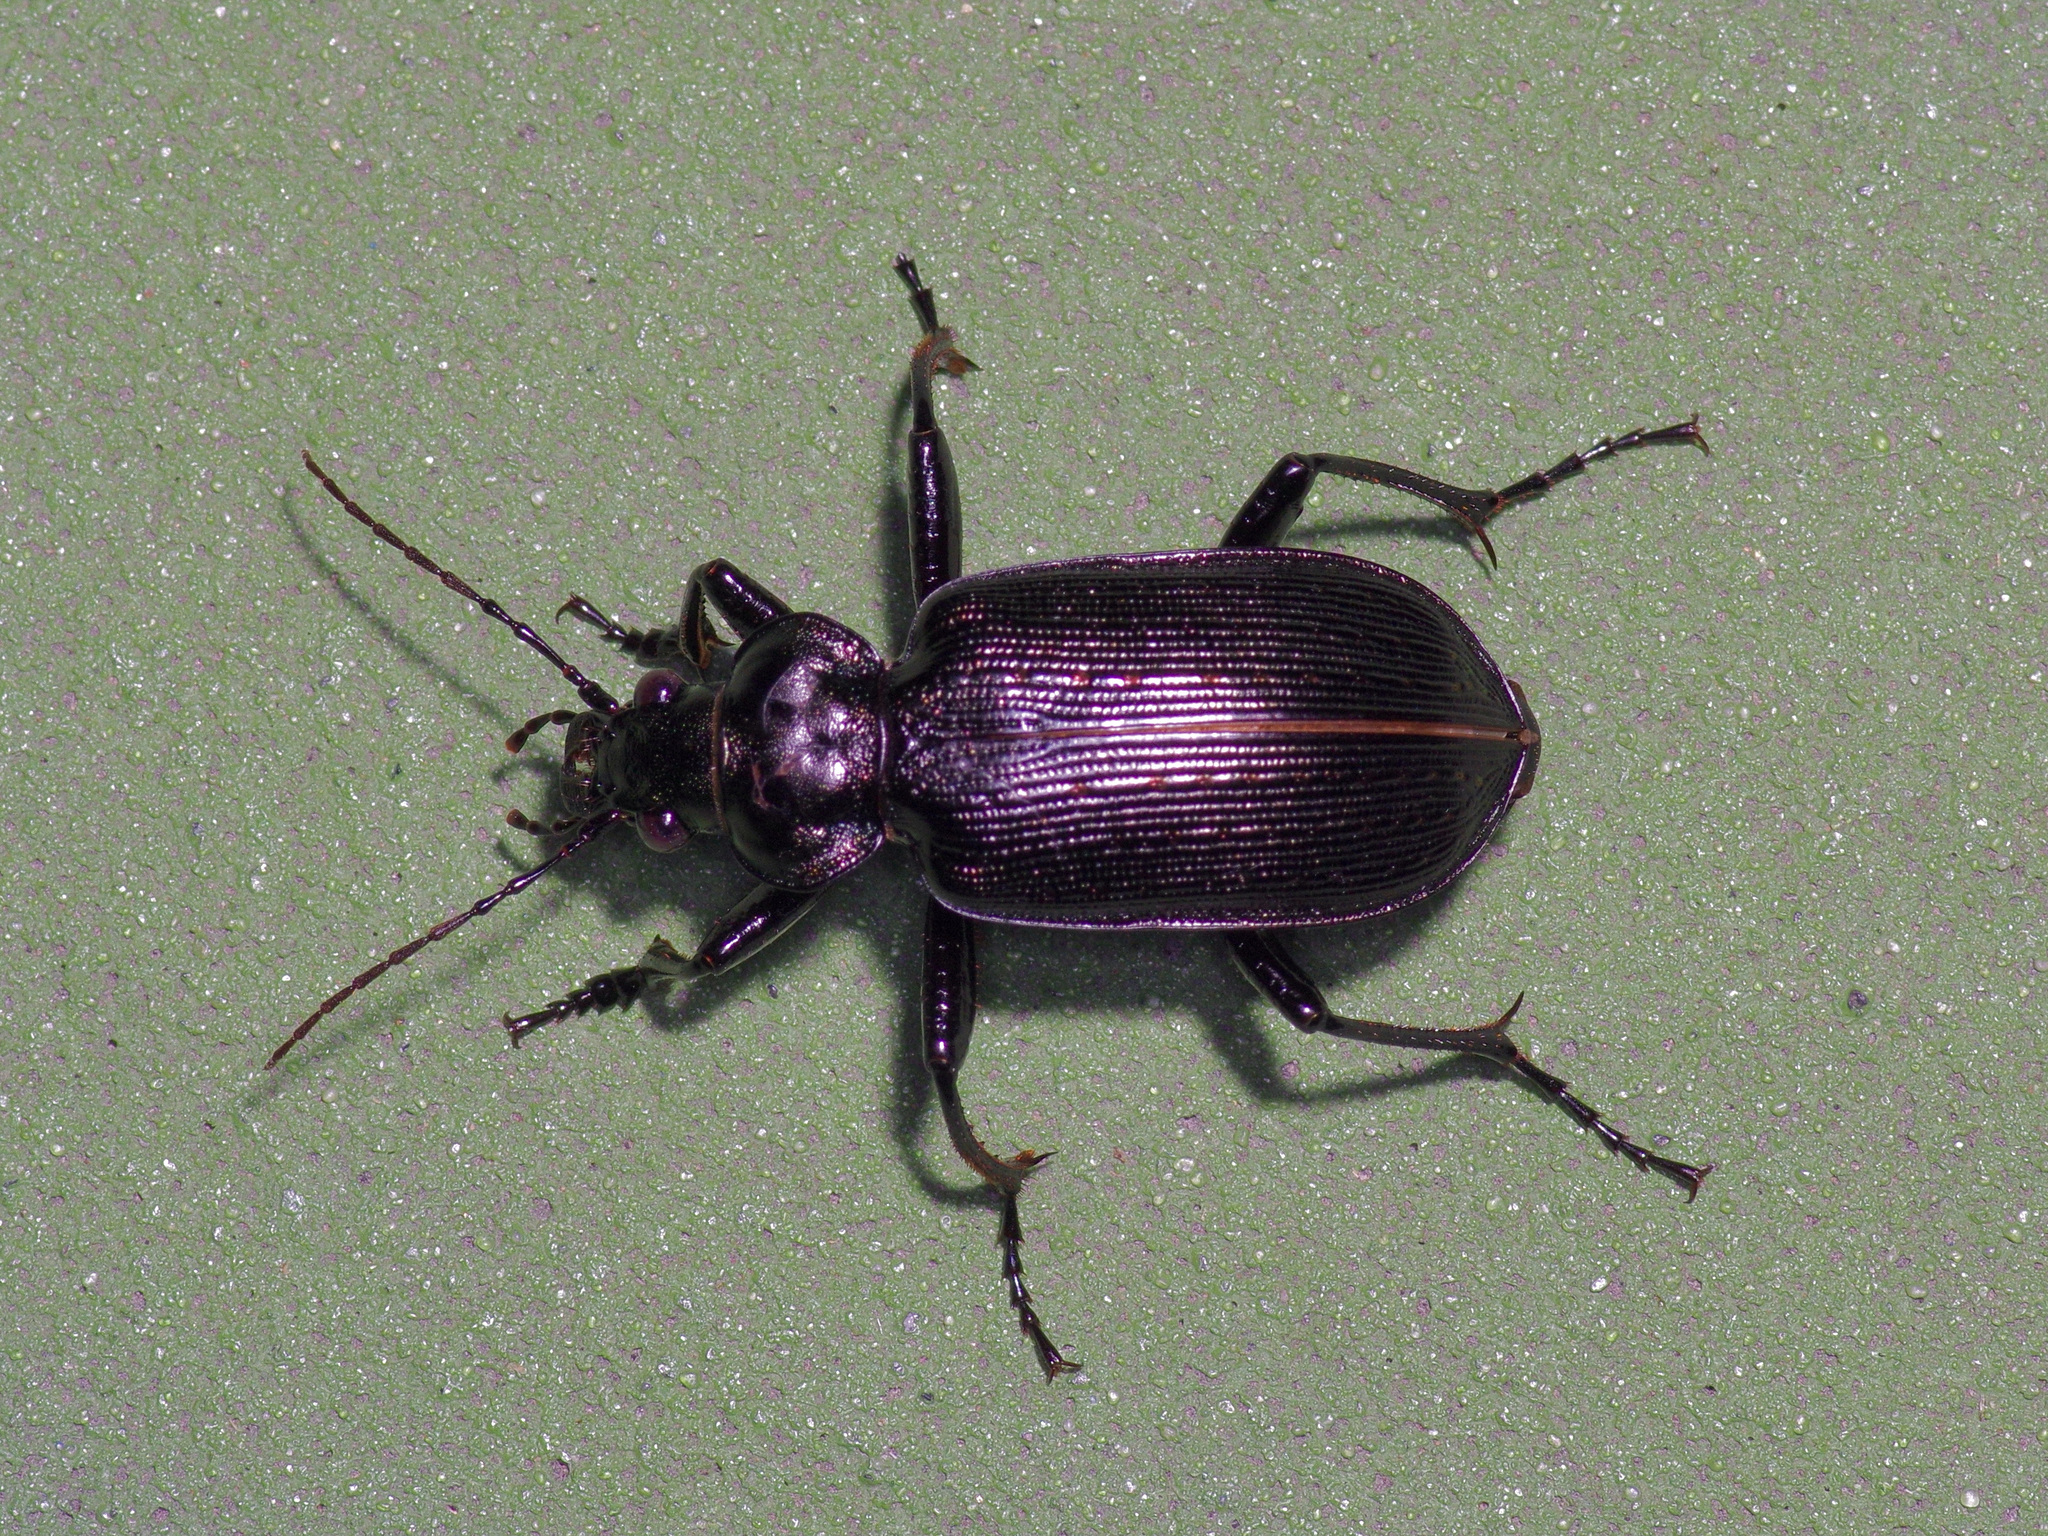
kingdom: Animalia
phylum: Arthropoda
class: Insecta
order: Coleoptera
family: Carabidae
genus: Calosoma
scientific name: Calosoma sayi
